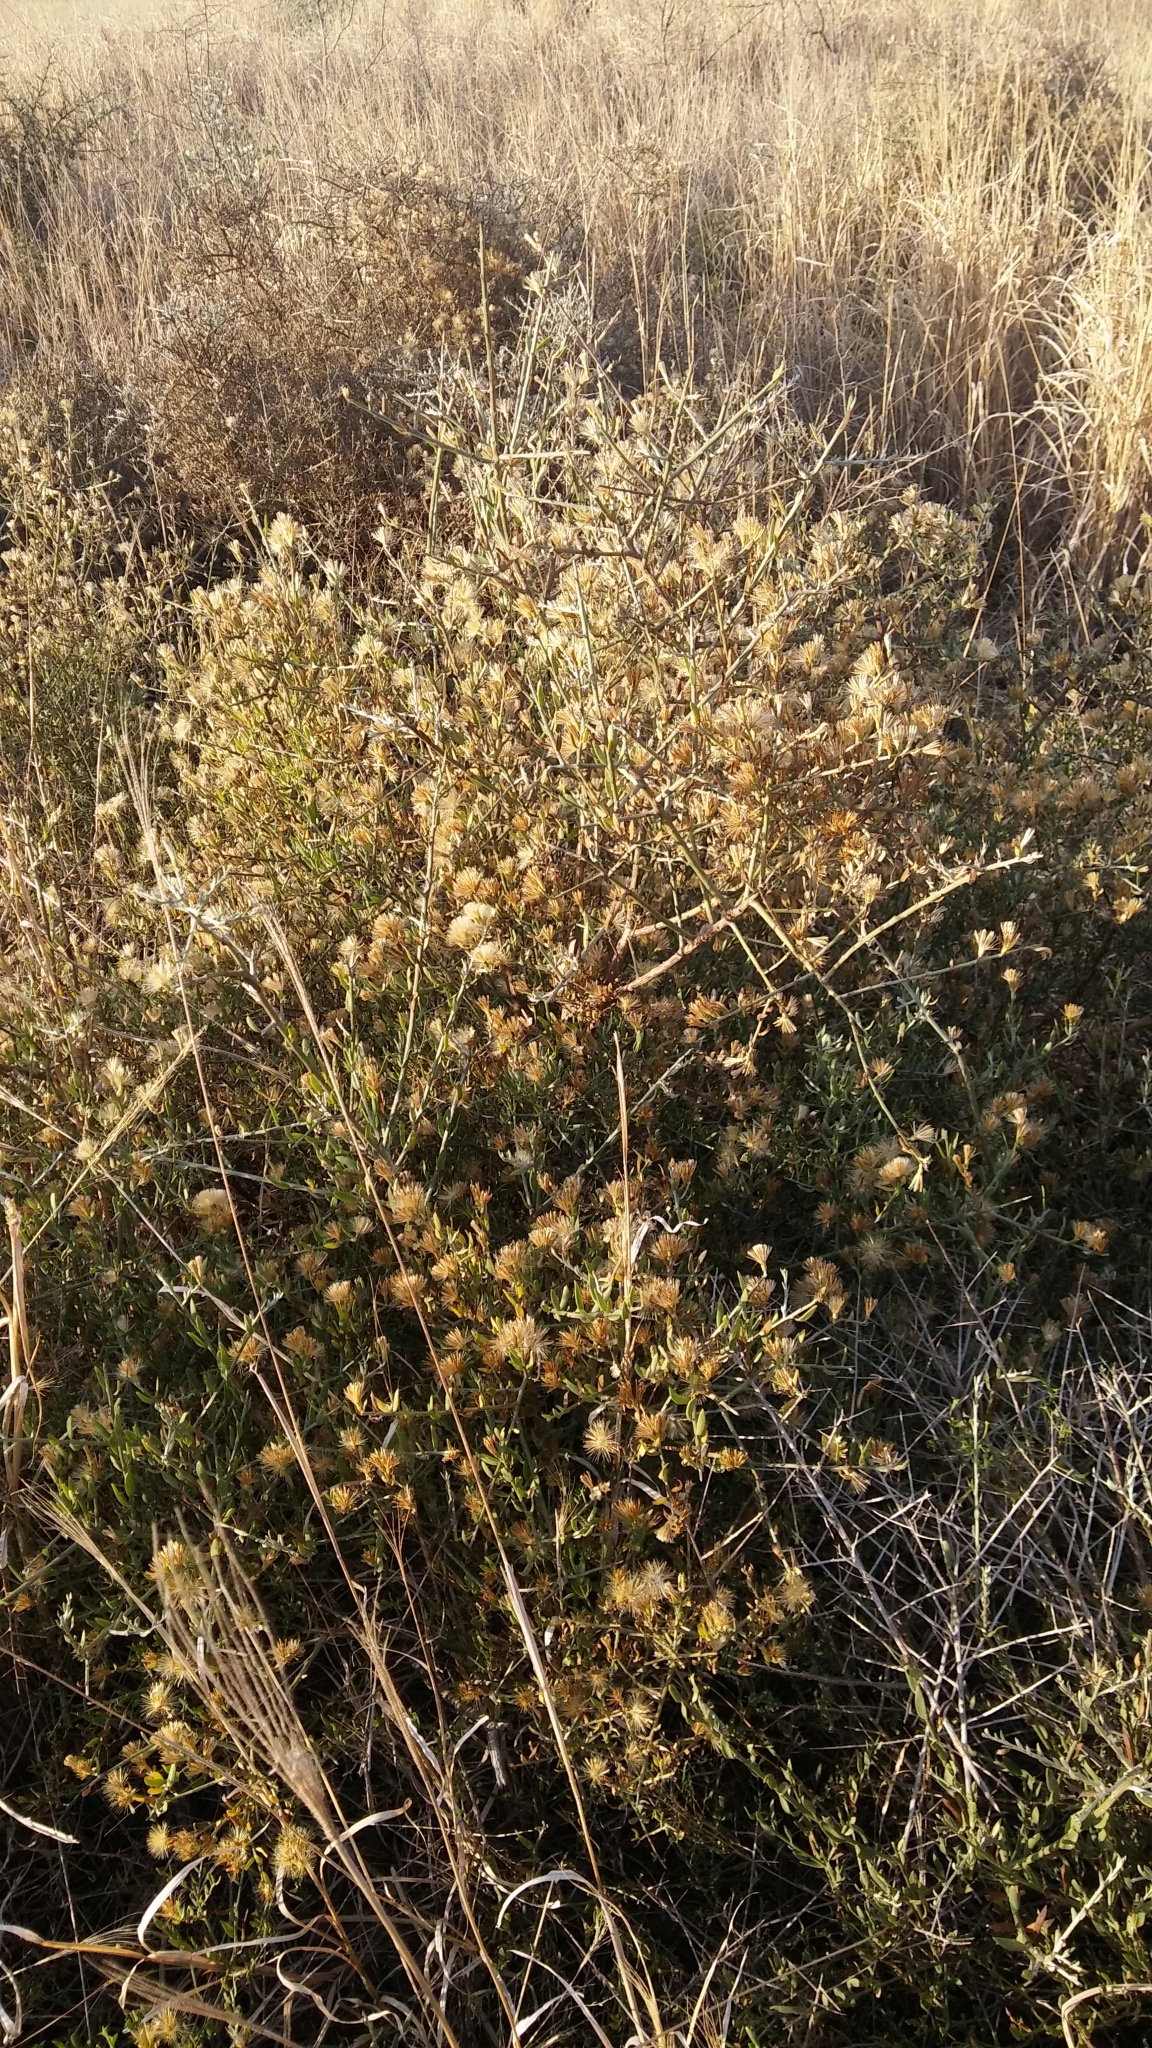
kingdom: Plantae
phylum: Tracheophyta
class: Magnoliopsida
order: Asterales
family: Asteraceae
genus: Cyclolepis
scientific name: Cyclolepis genistoides
